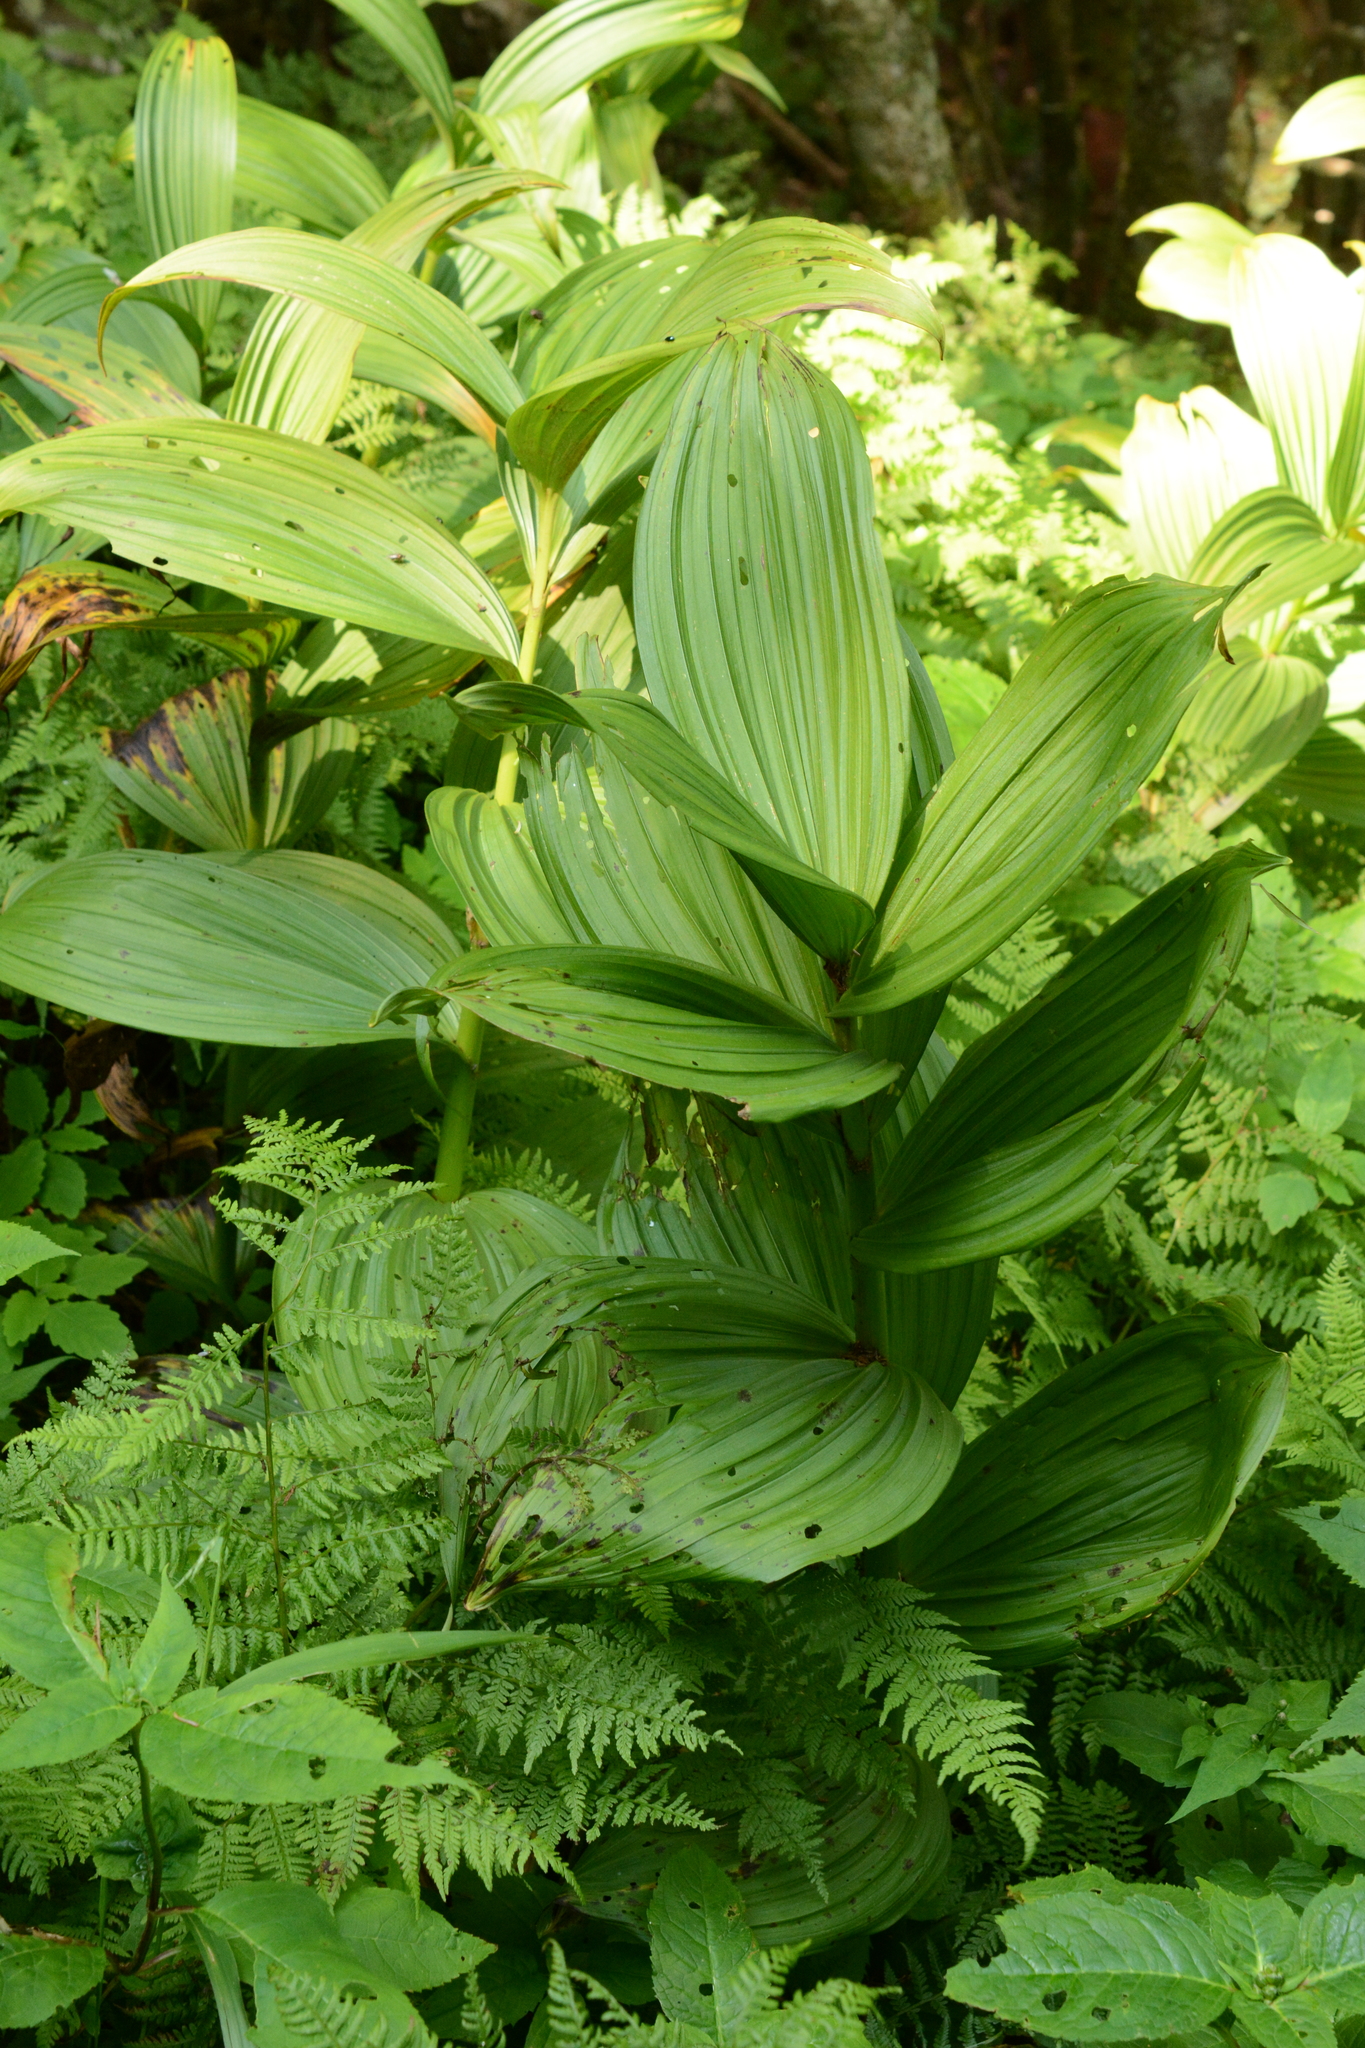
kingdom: Plantae
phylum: Tracheophyta
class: Liliopsida
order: Liliales
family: Melanthiaceae
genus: Veratrum
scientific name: Veratrum viride
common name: American false hellebore
